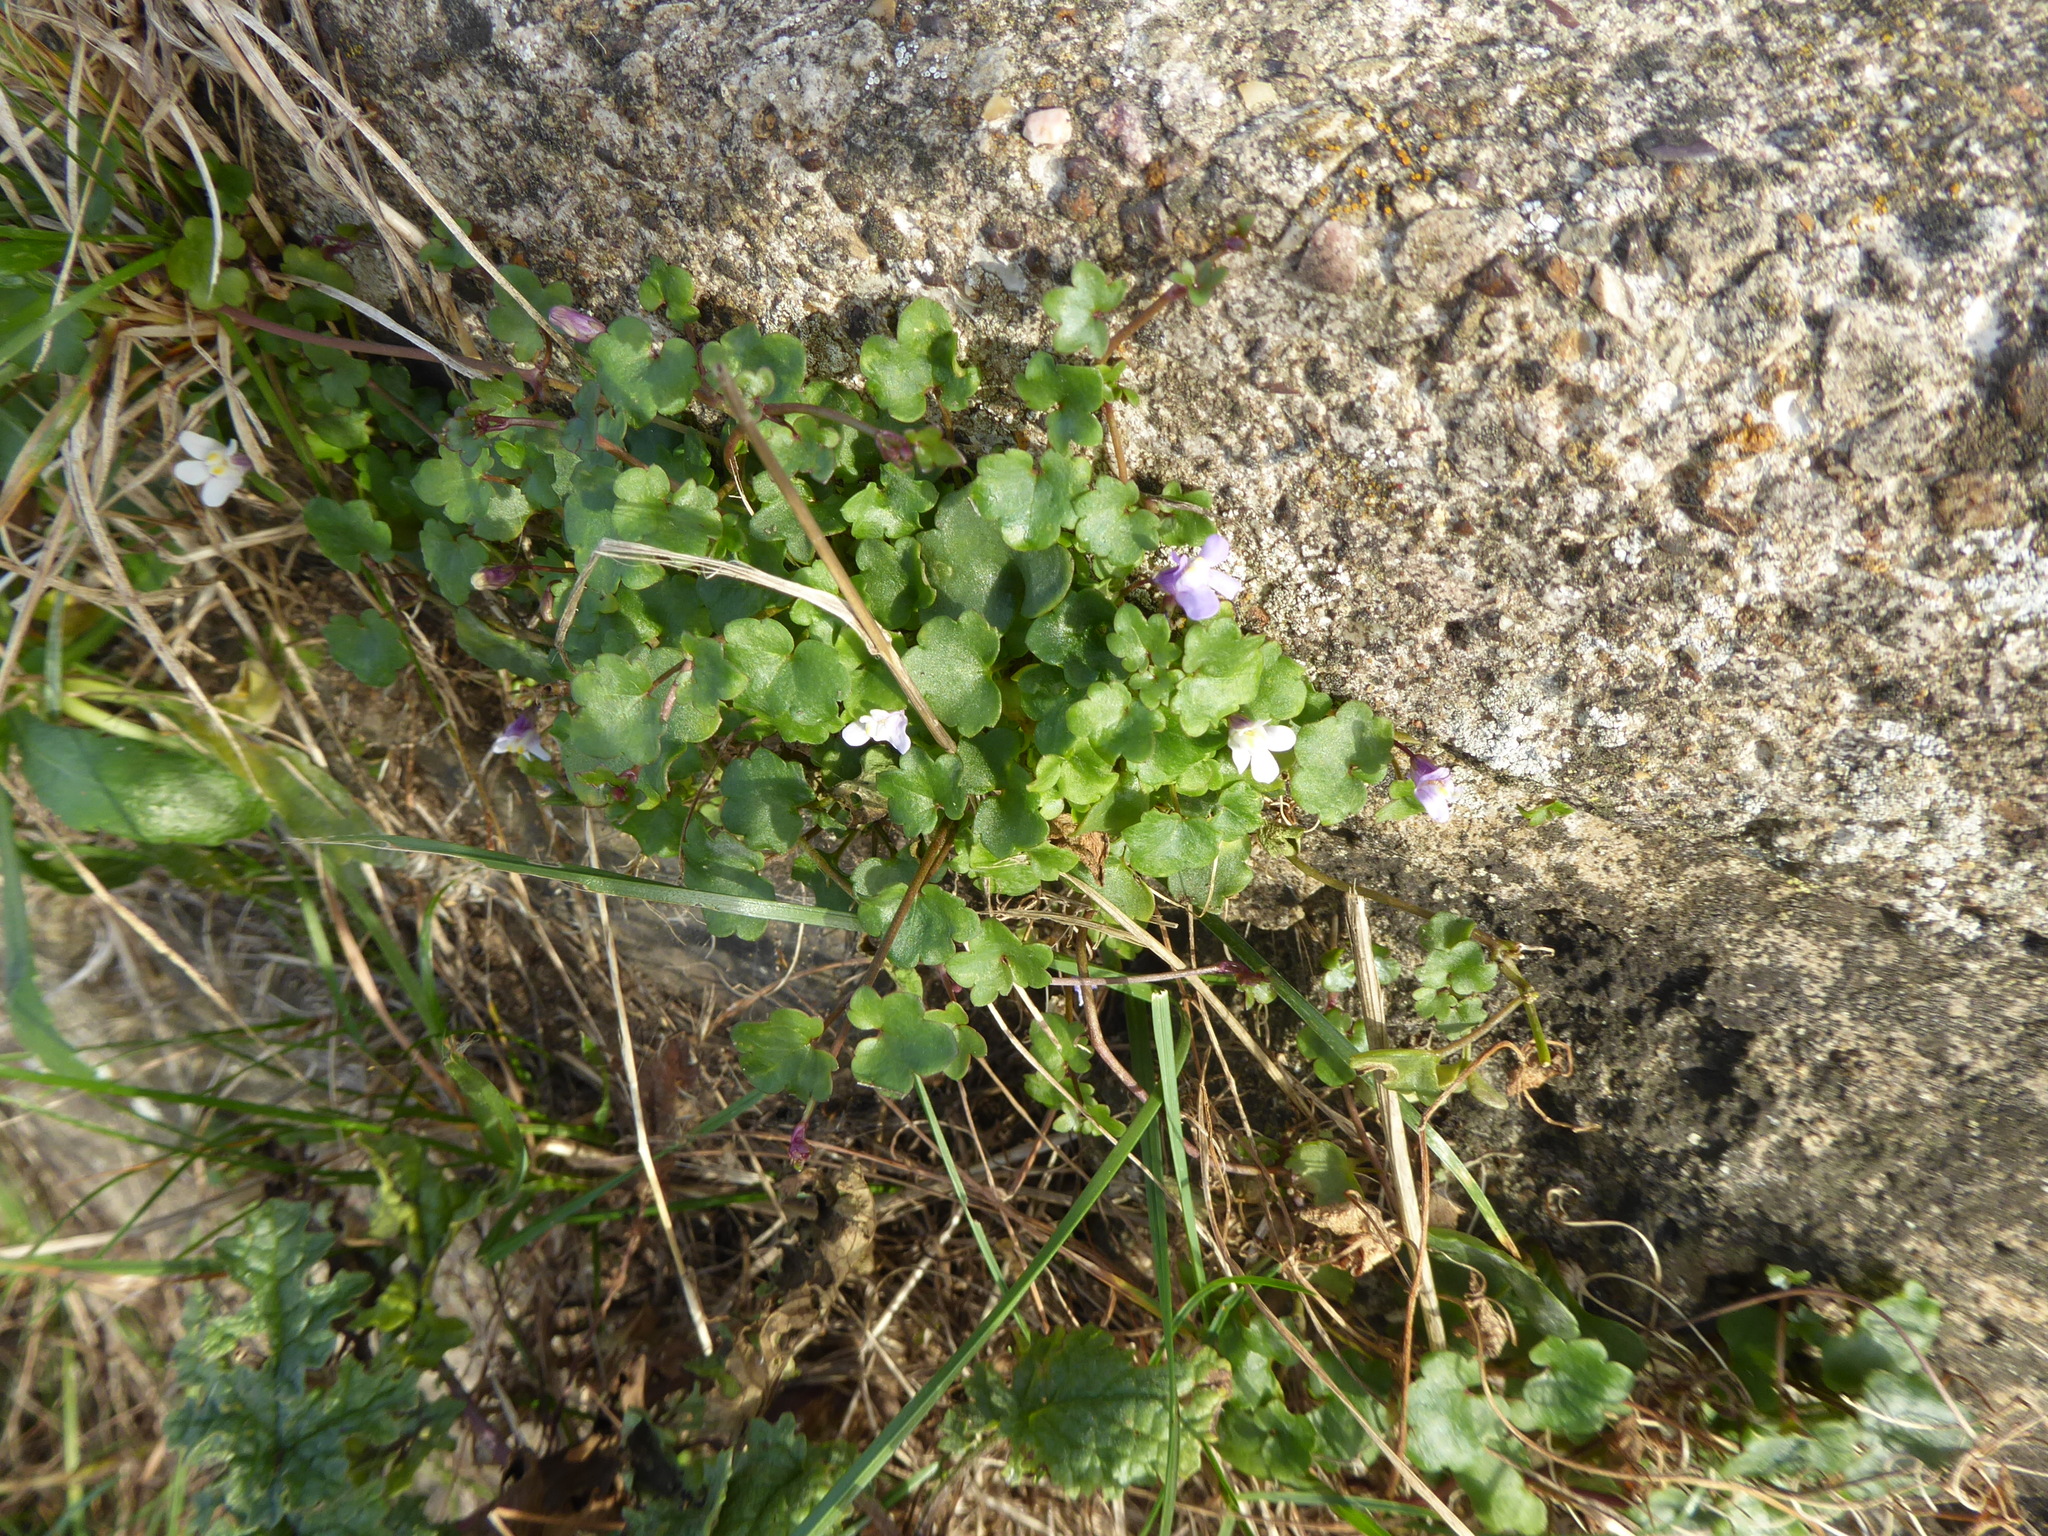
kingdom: Plantae
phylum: Tracheophyta
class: Magnoliopsida
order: Lamiales
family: Plantaginaceae
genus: Cymbalaria
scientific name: Cymbalaria muralis
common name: Ivy-leaved toadflax
